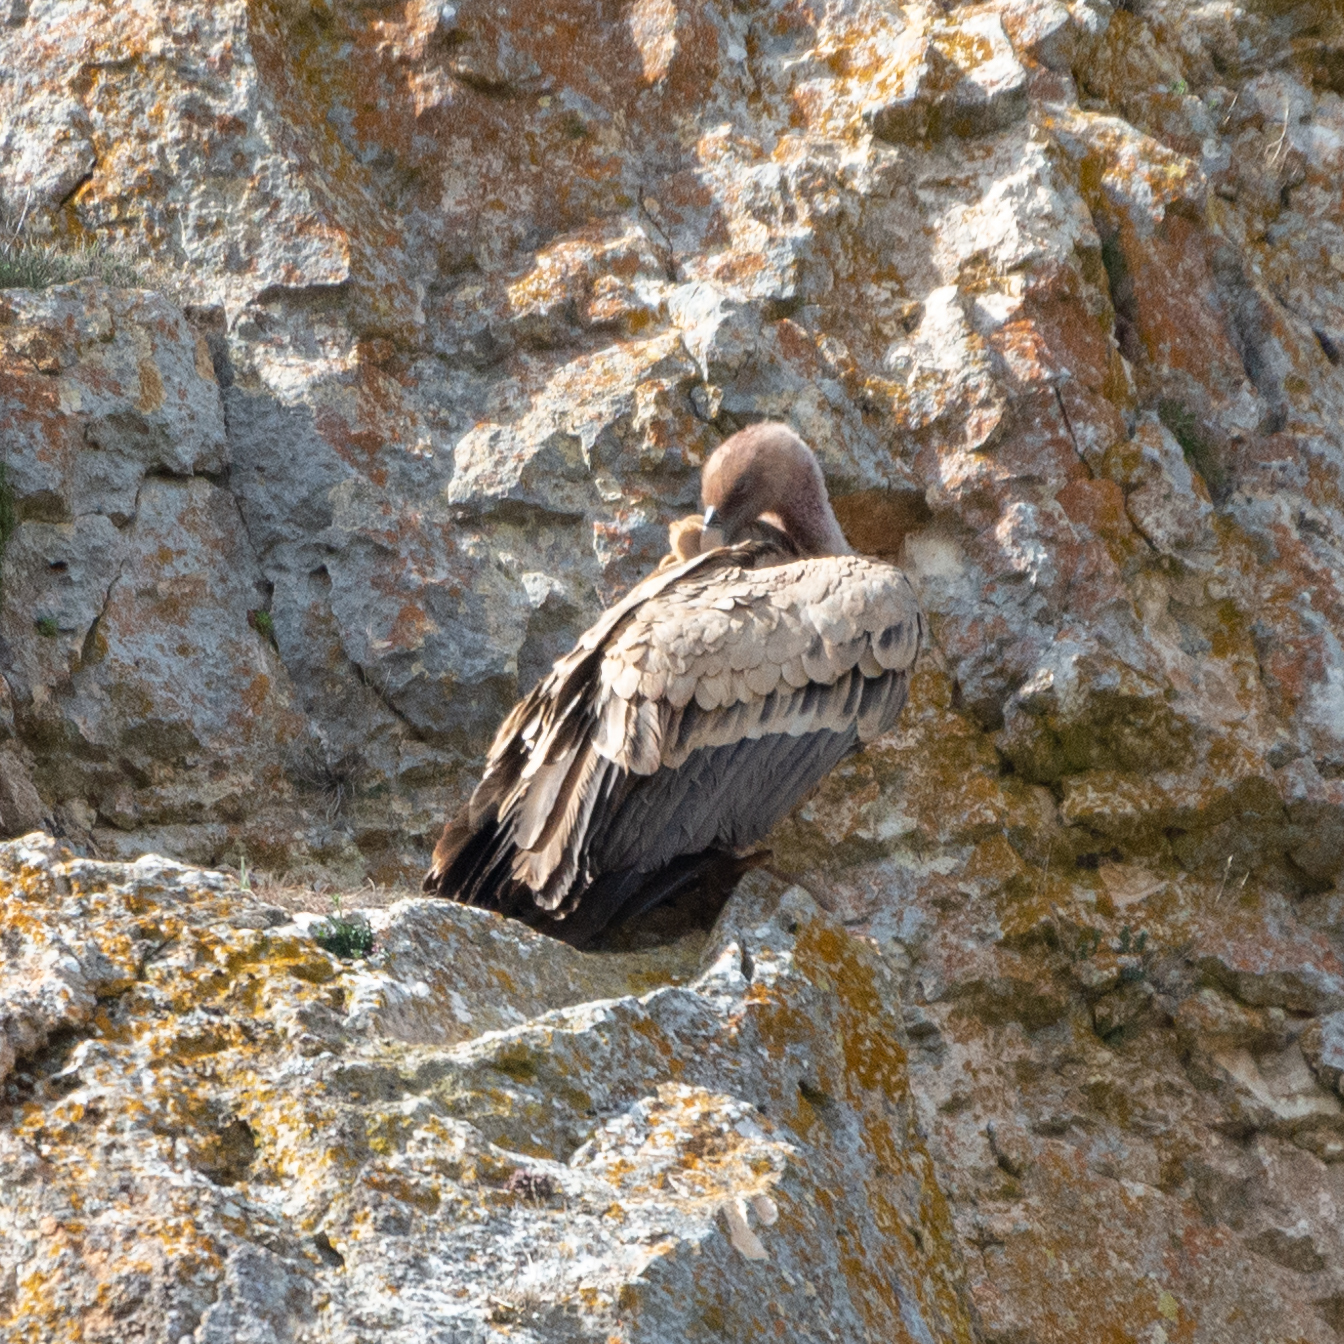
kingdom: Animalia
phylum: Chordata
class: Aves
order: Accipitriformes
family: Accipitridae
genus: Gyps
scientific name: Gyps fulvus
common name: Griffon vulture
